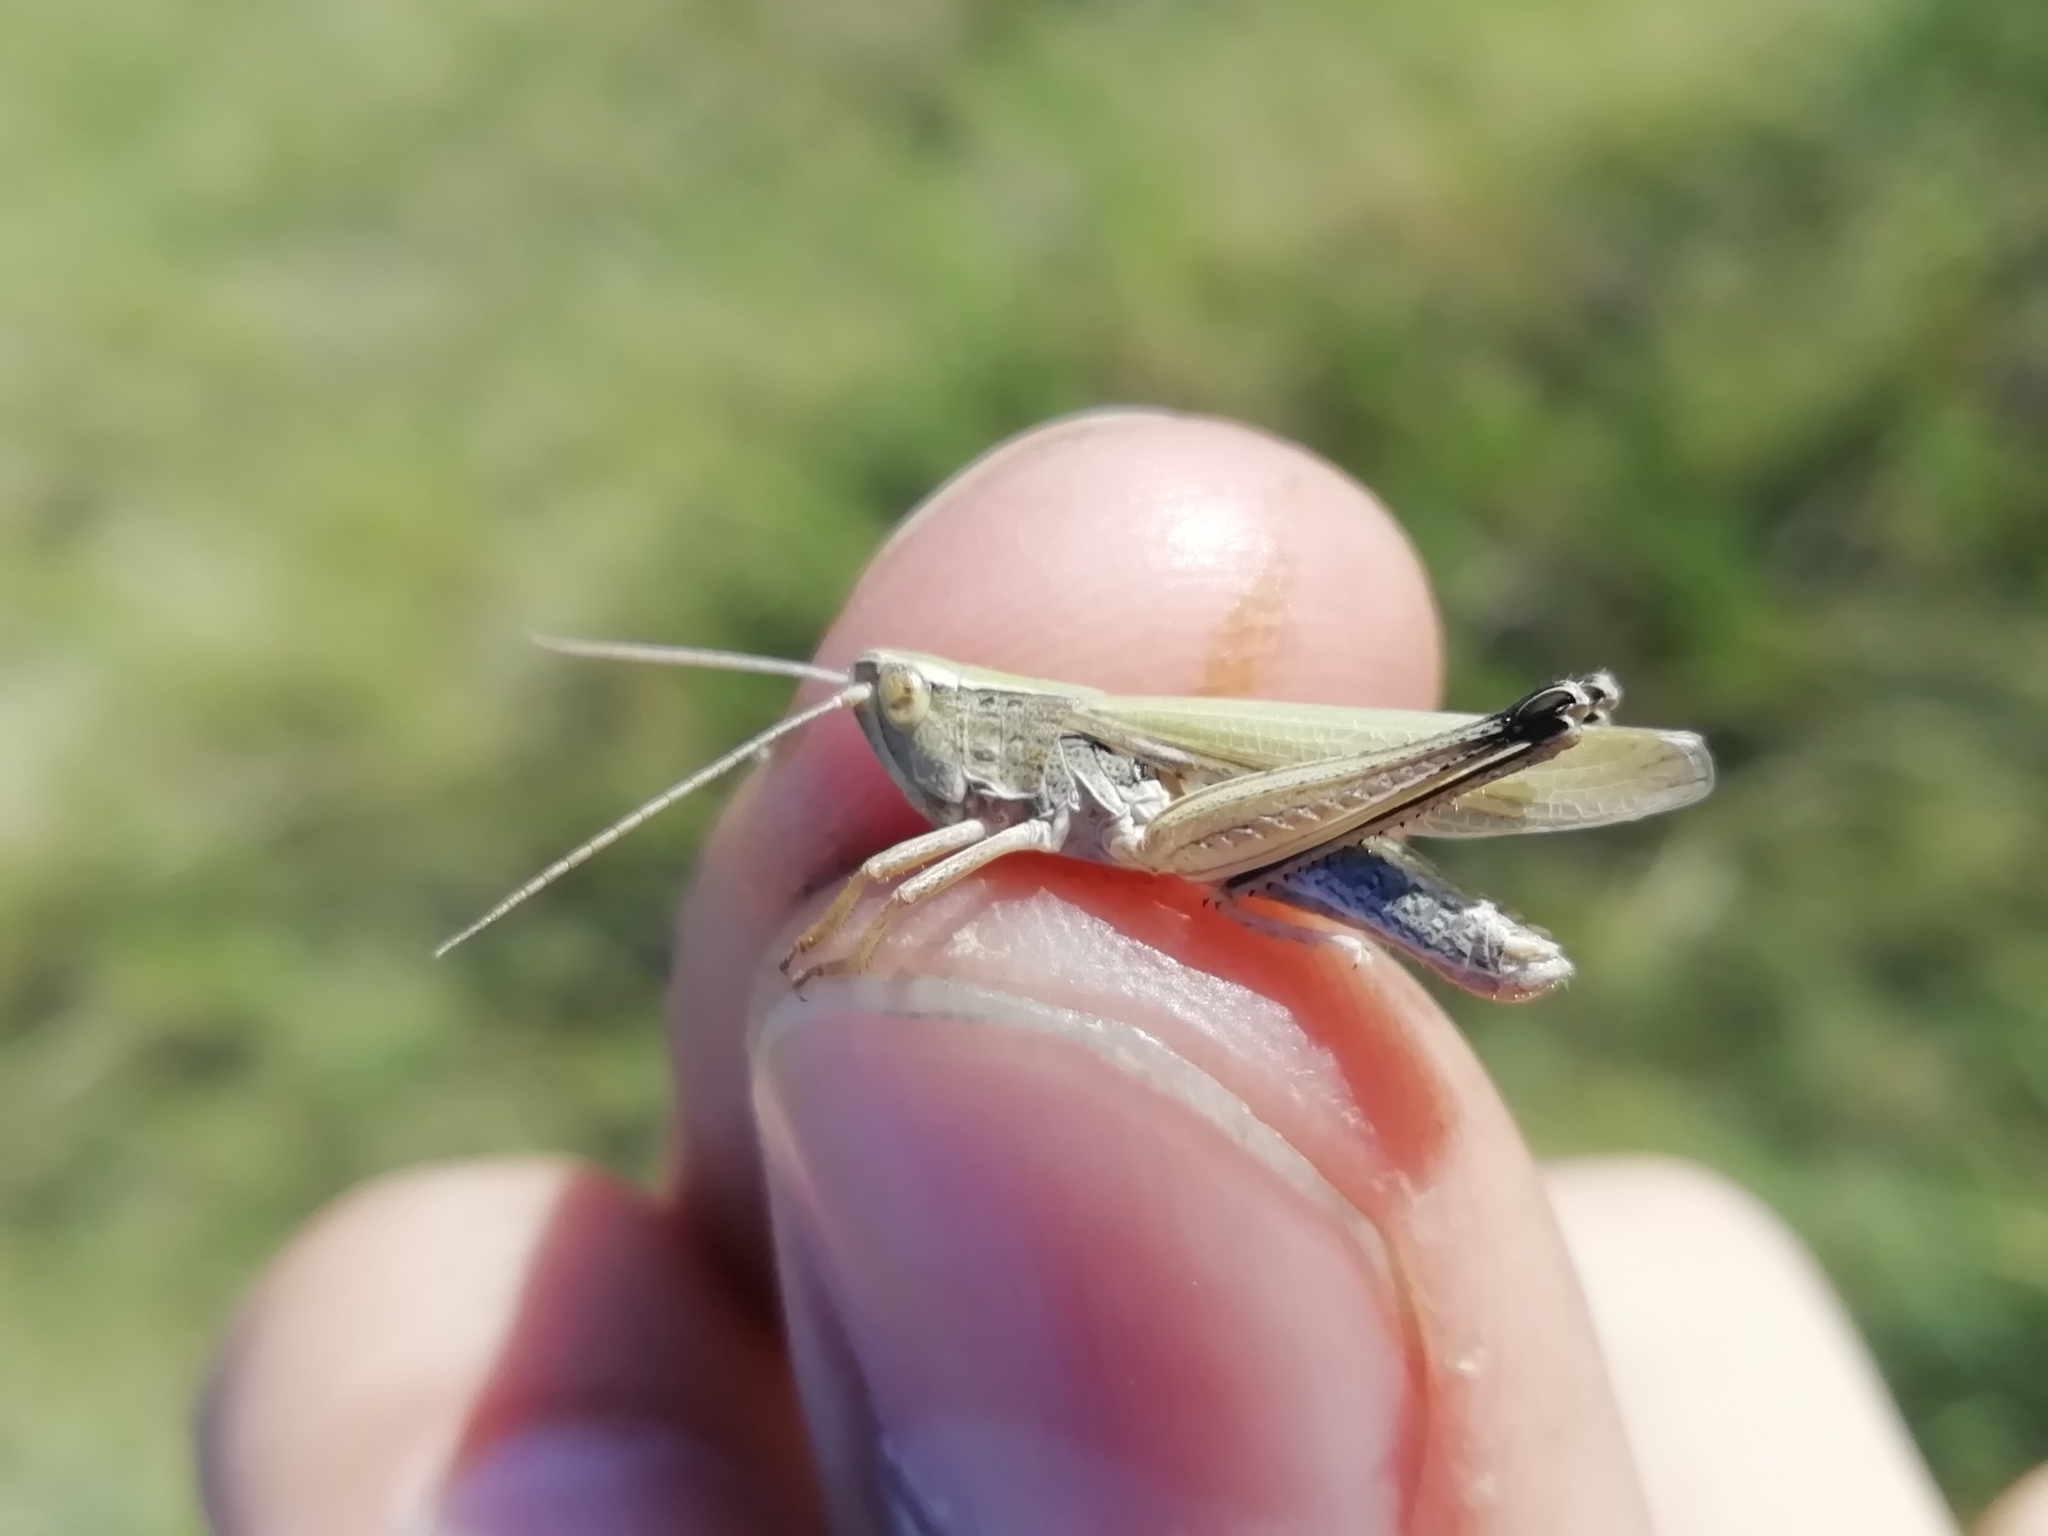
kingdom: Animalia
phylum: Arthropoda
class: Insecta
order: Orthoptera
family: Acrididae
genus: Chorthippus
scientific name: Chorthippus karelini
